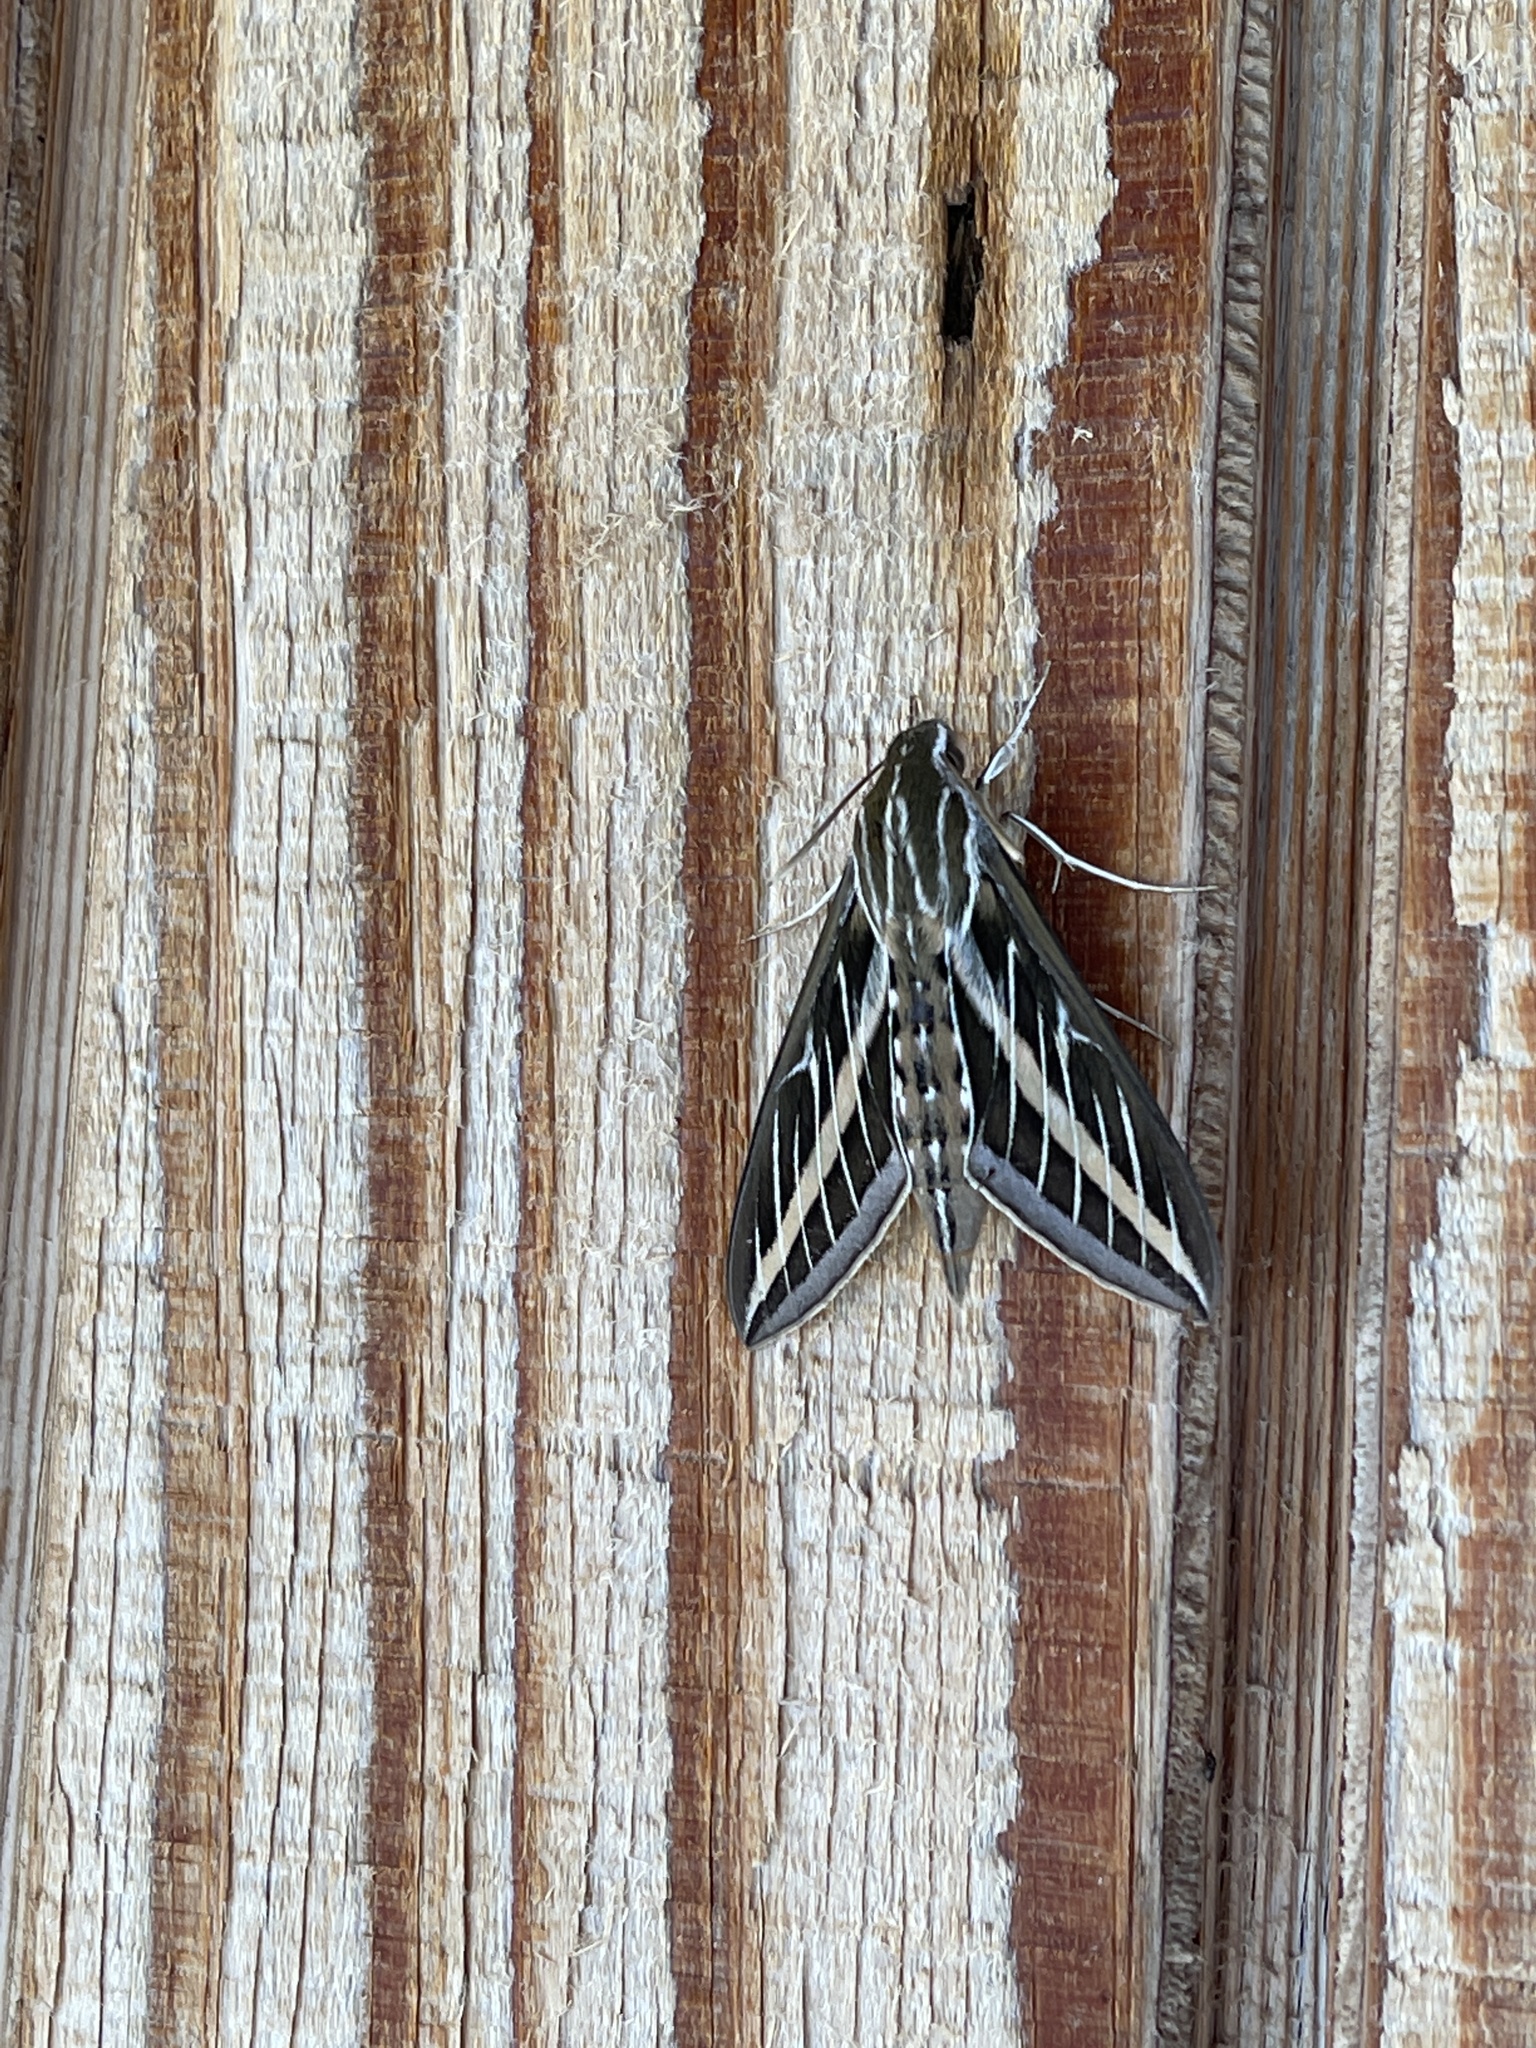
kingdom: Animalia
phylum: Arthropoda
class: Insecta
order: Lepidoptera
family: Sphingidae
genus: Hyles
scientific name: Hyles lineata
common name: White-lined sphinx
